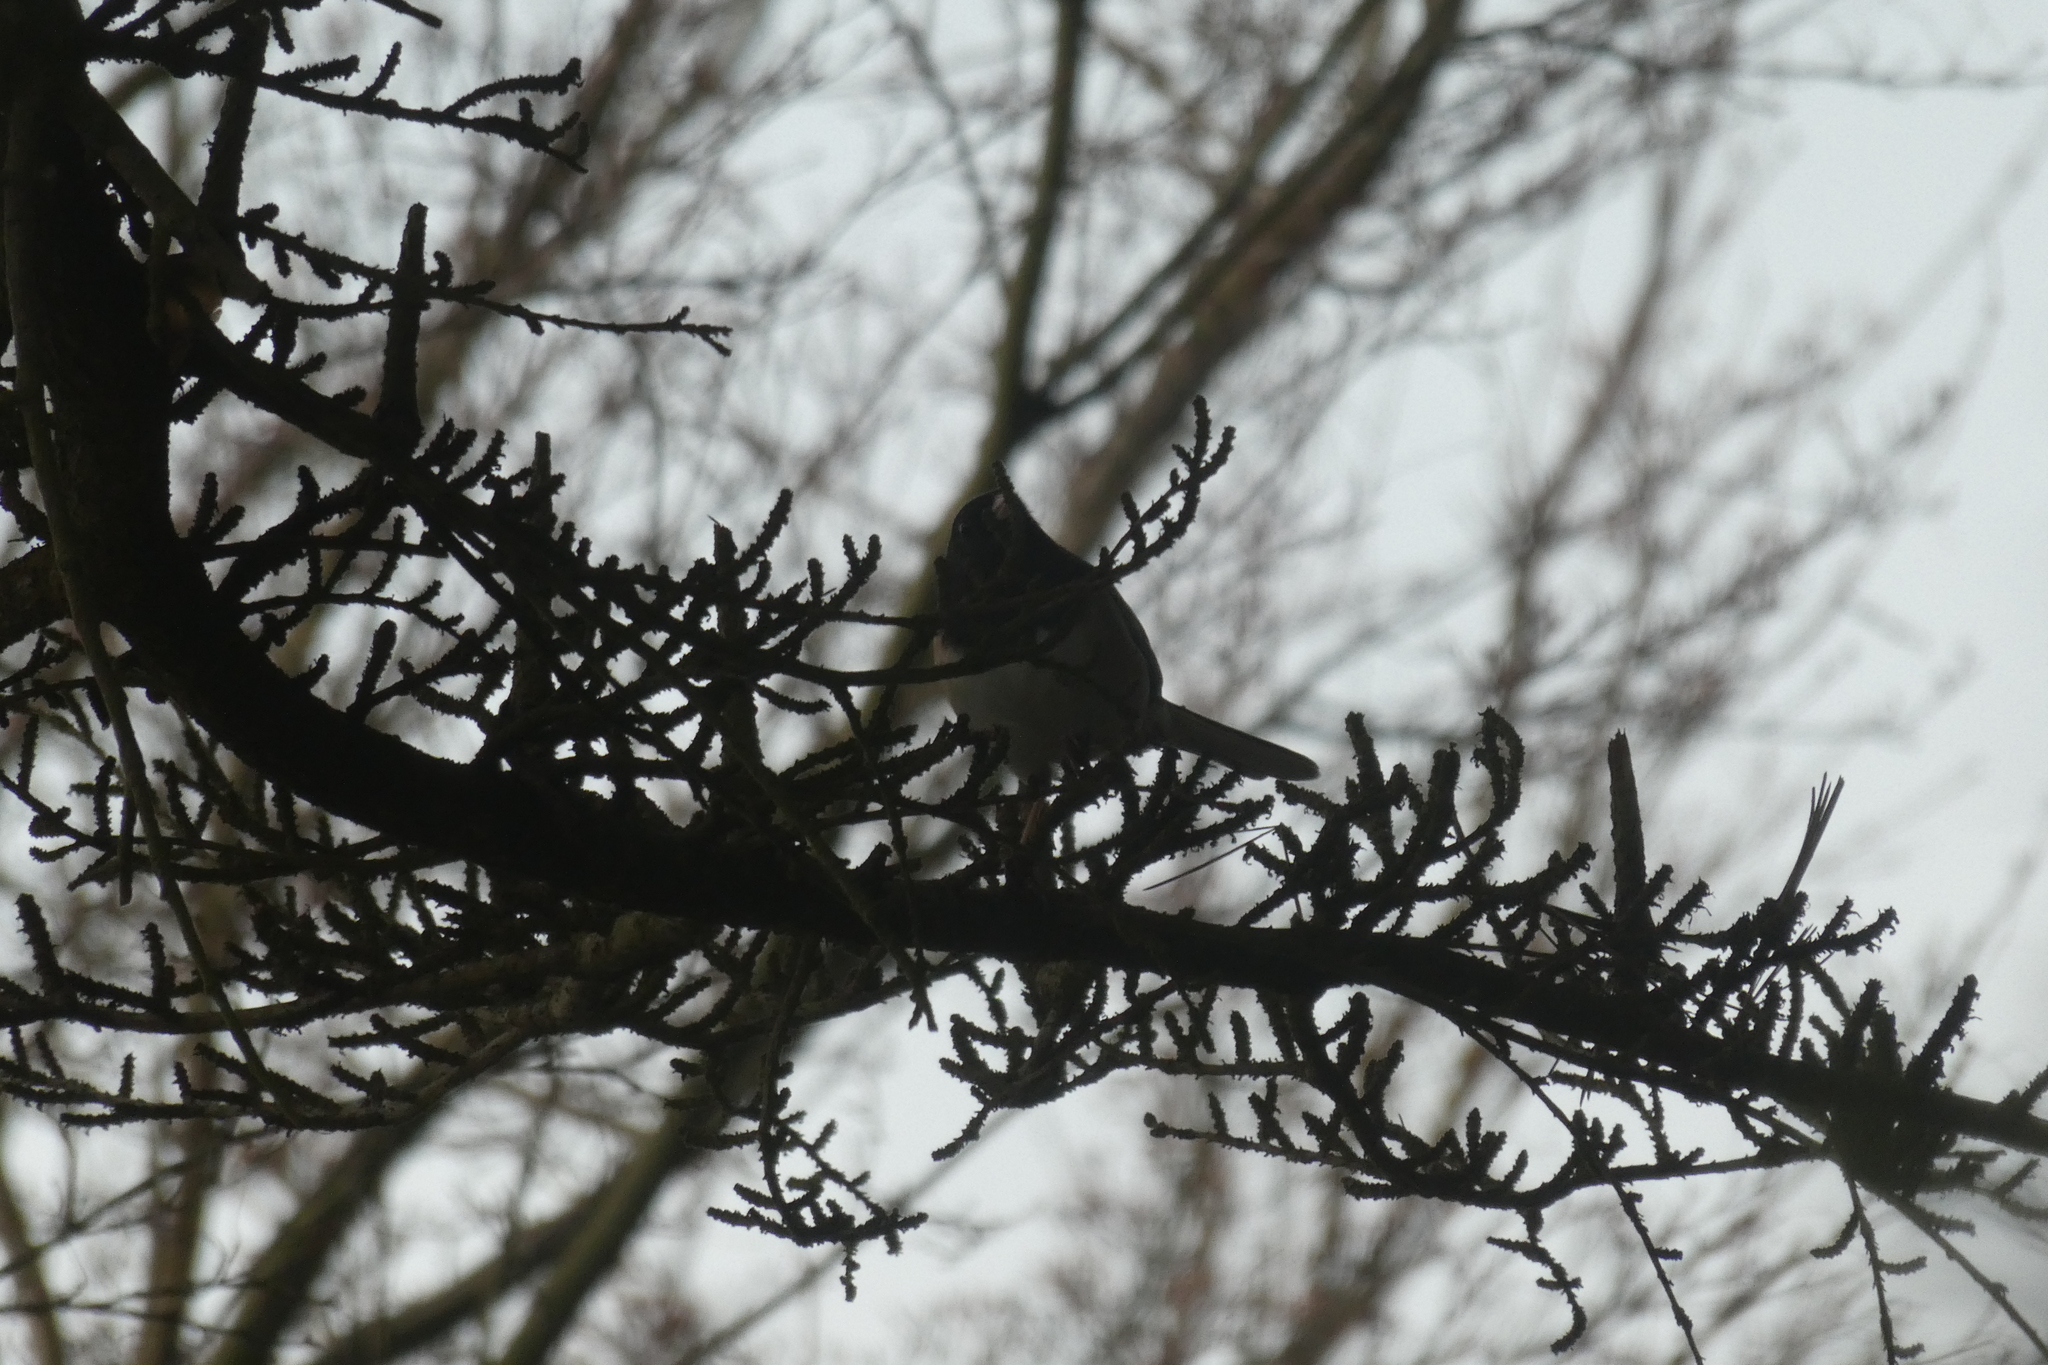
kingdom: Animalia
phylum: Chordata
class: Aves
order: Passeriformes
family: Passerellidae
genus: Junco
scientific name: Junco hyemalis
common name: Dark-eyed junco
